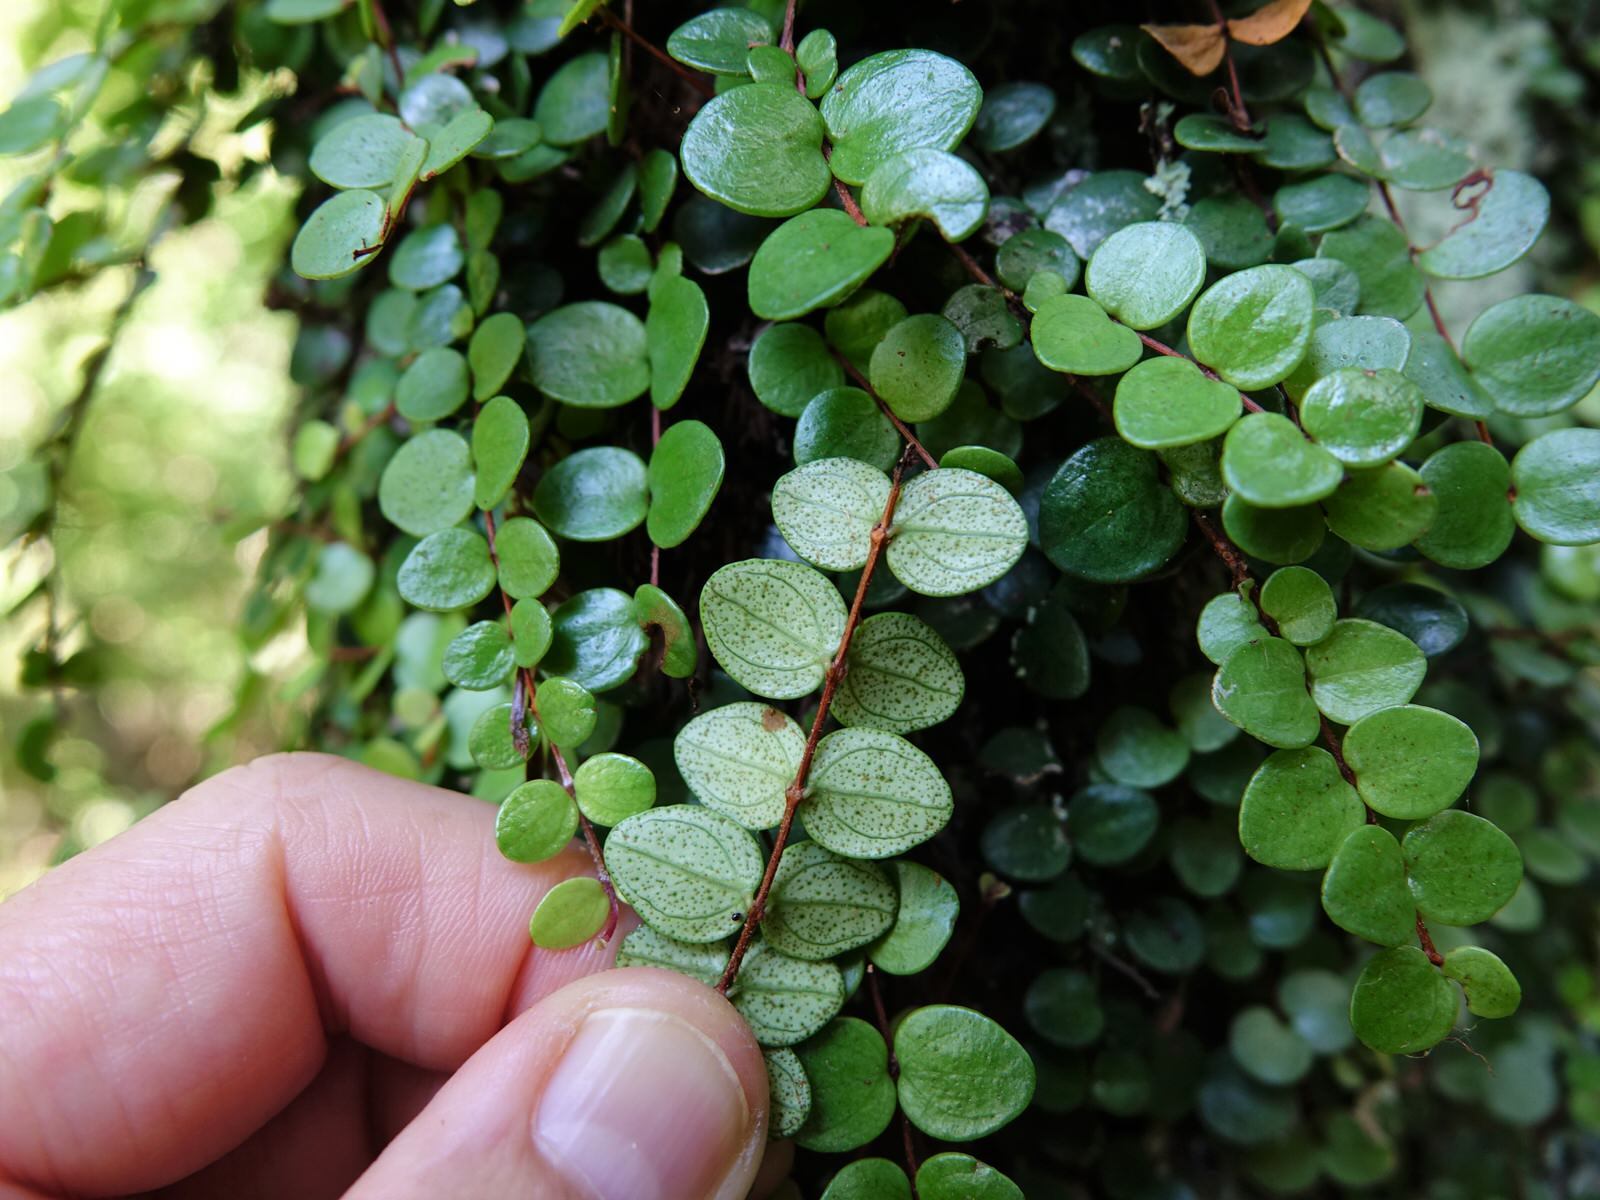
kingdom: Plantae
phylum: Tracheophyta
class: Magnoliopsida
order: Myrtales
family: Myrtaceae
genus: Metrosideros
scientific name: Metrosideros perforata
